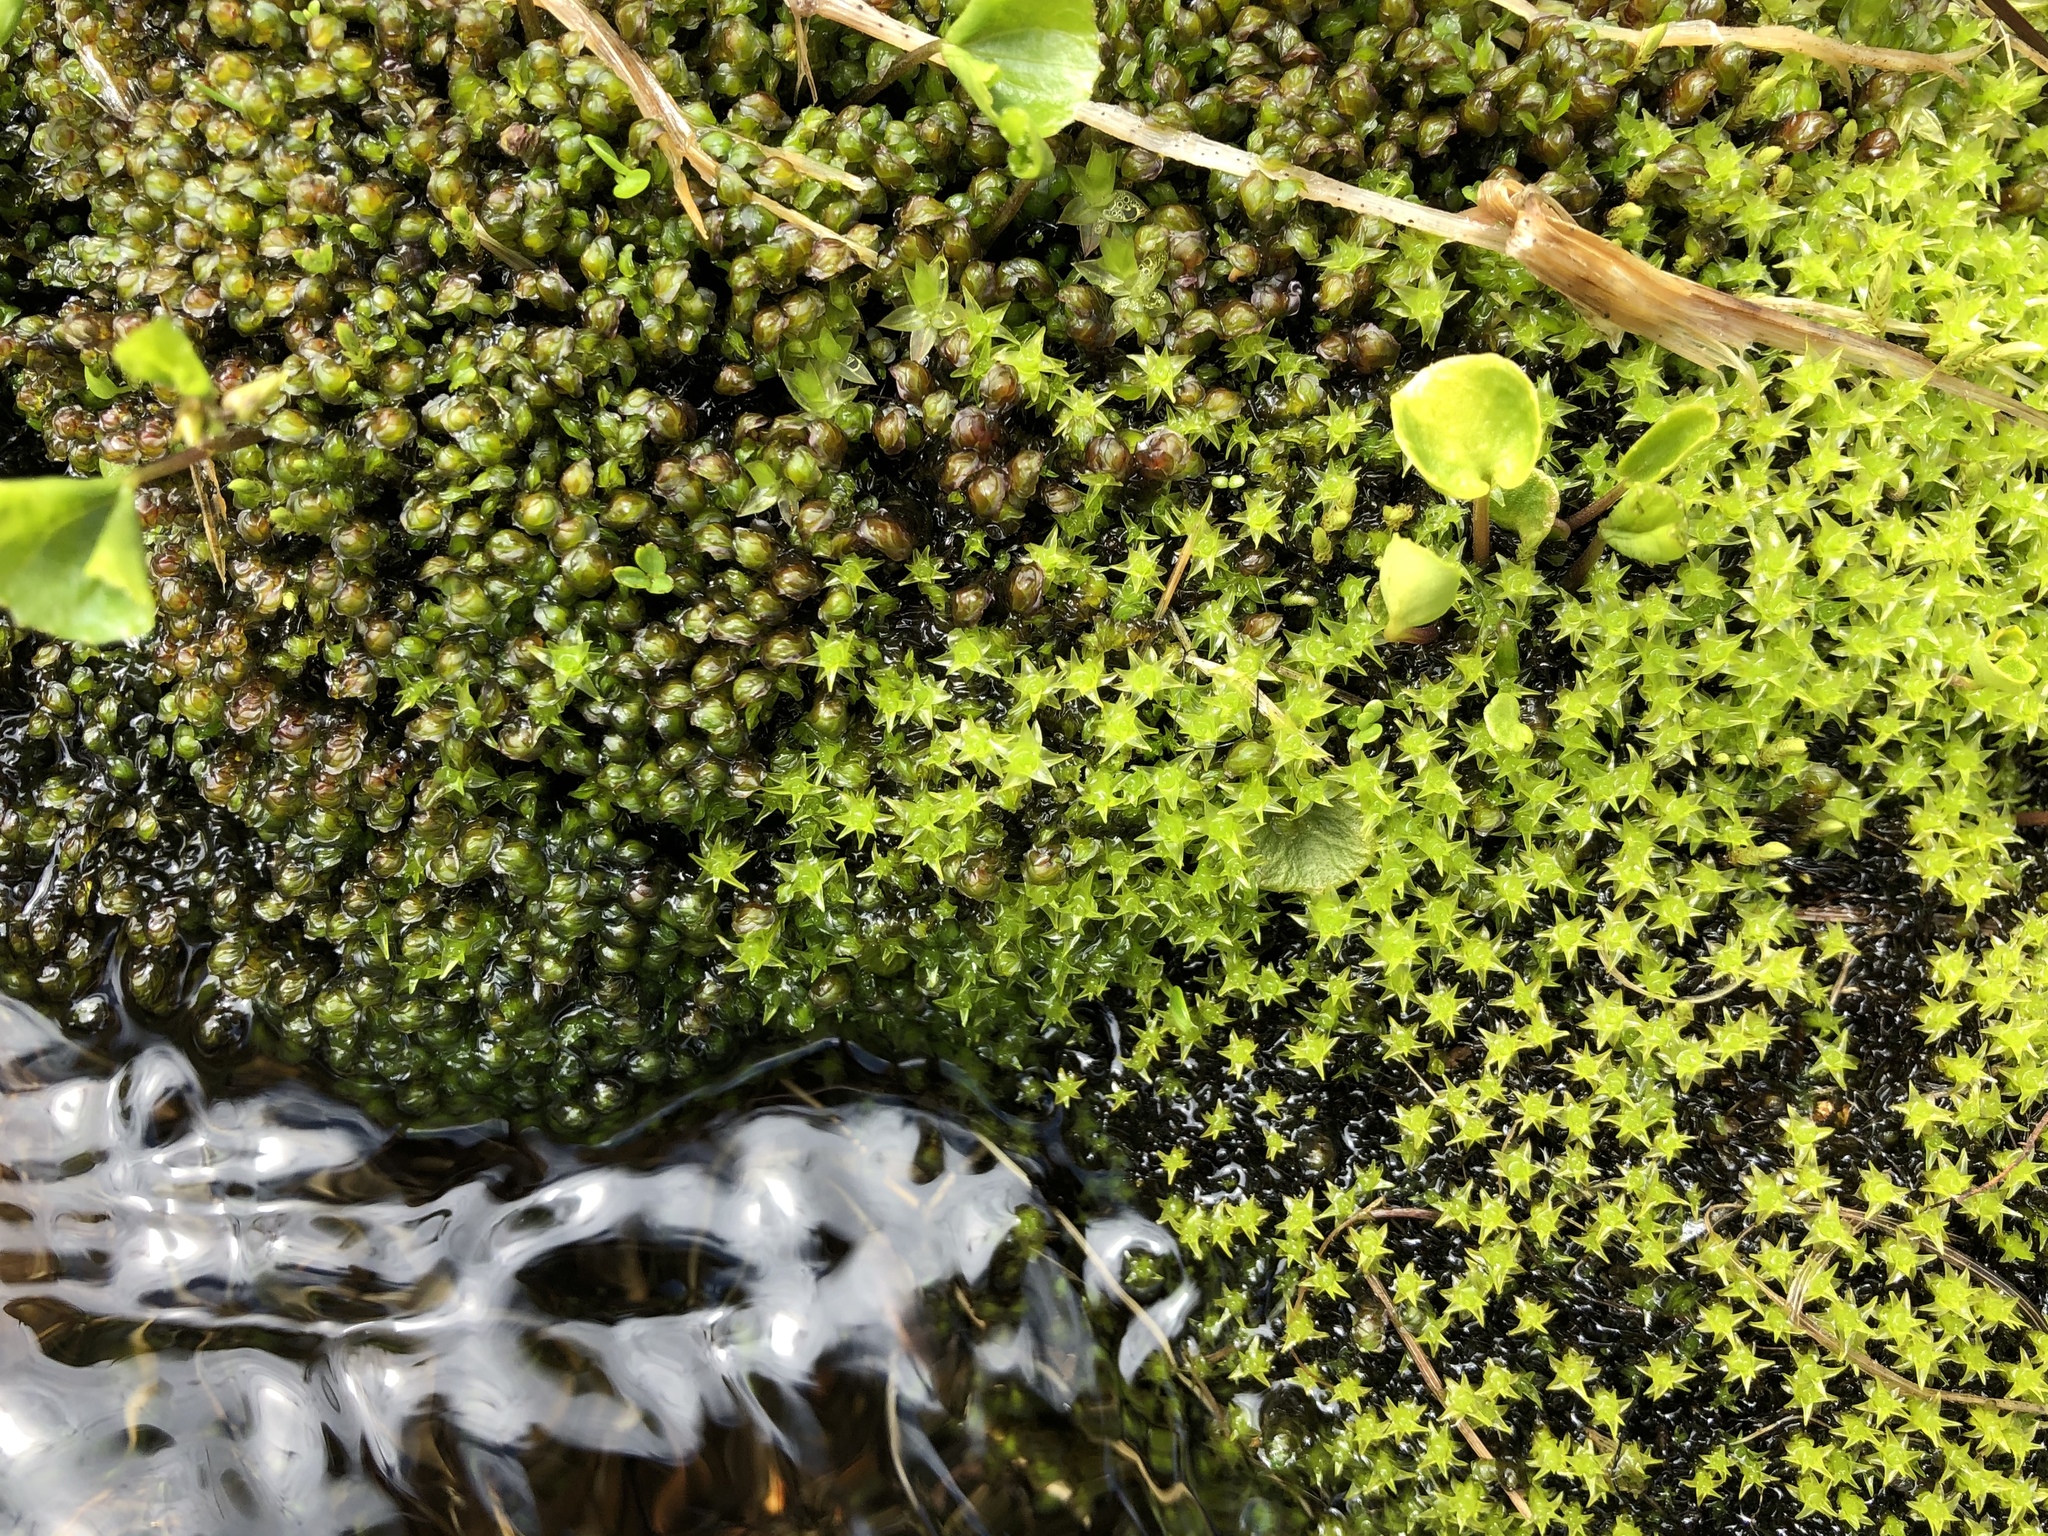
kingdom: Plantae
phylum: Bryophyta
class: Bryopsida
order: Dicranales
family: Aongstroemiaceae
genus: Diobelonella
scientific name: Diobelonella palustris
